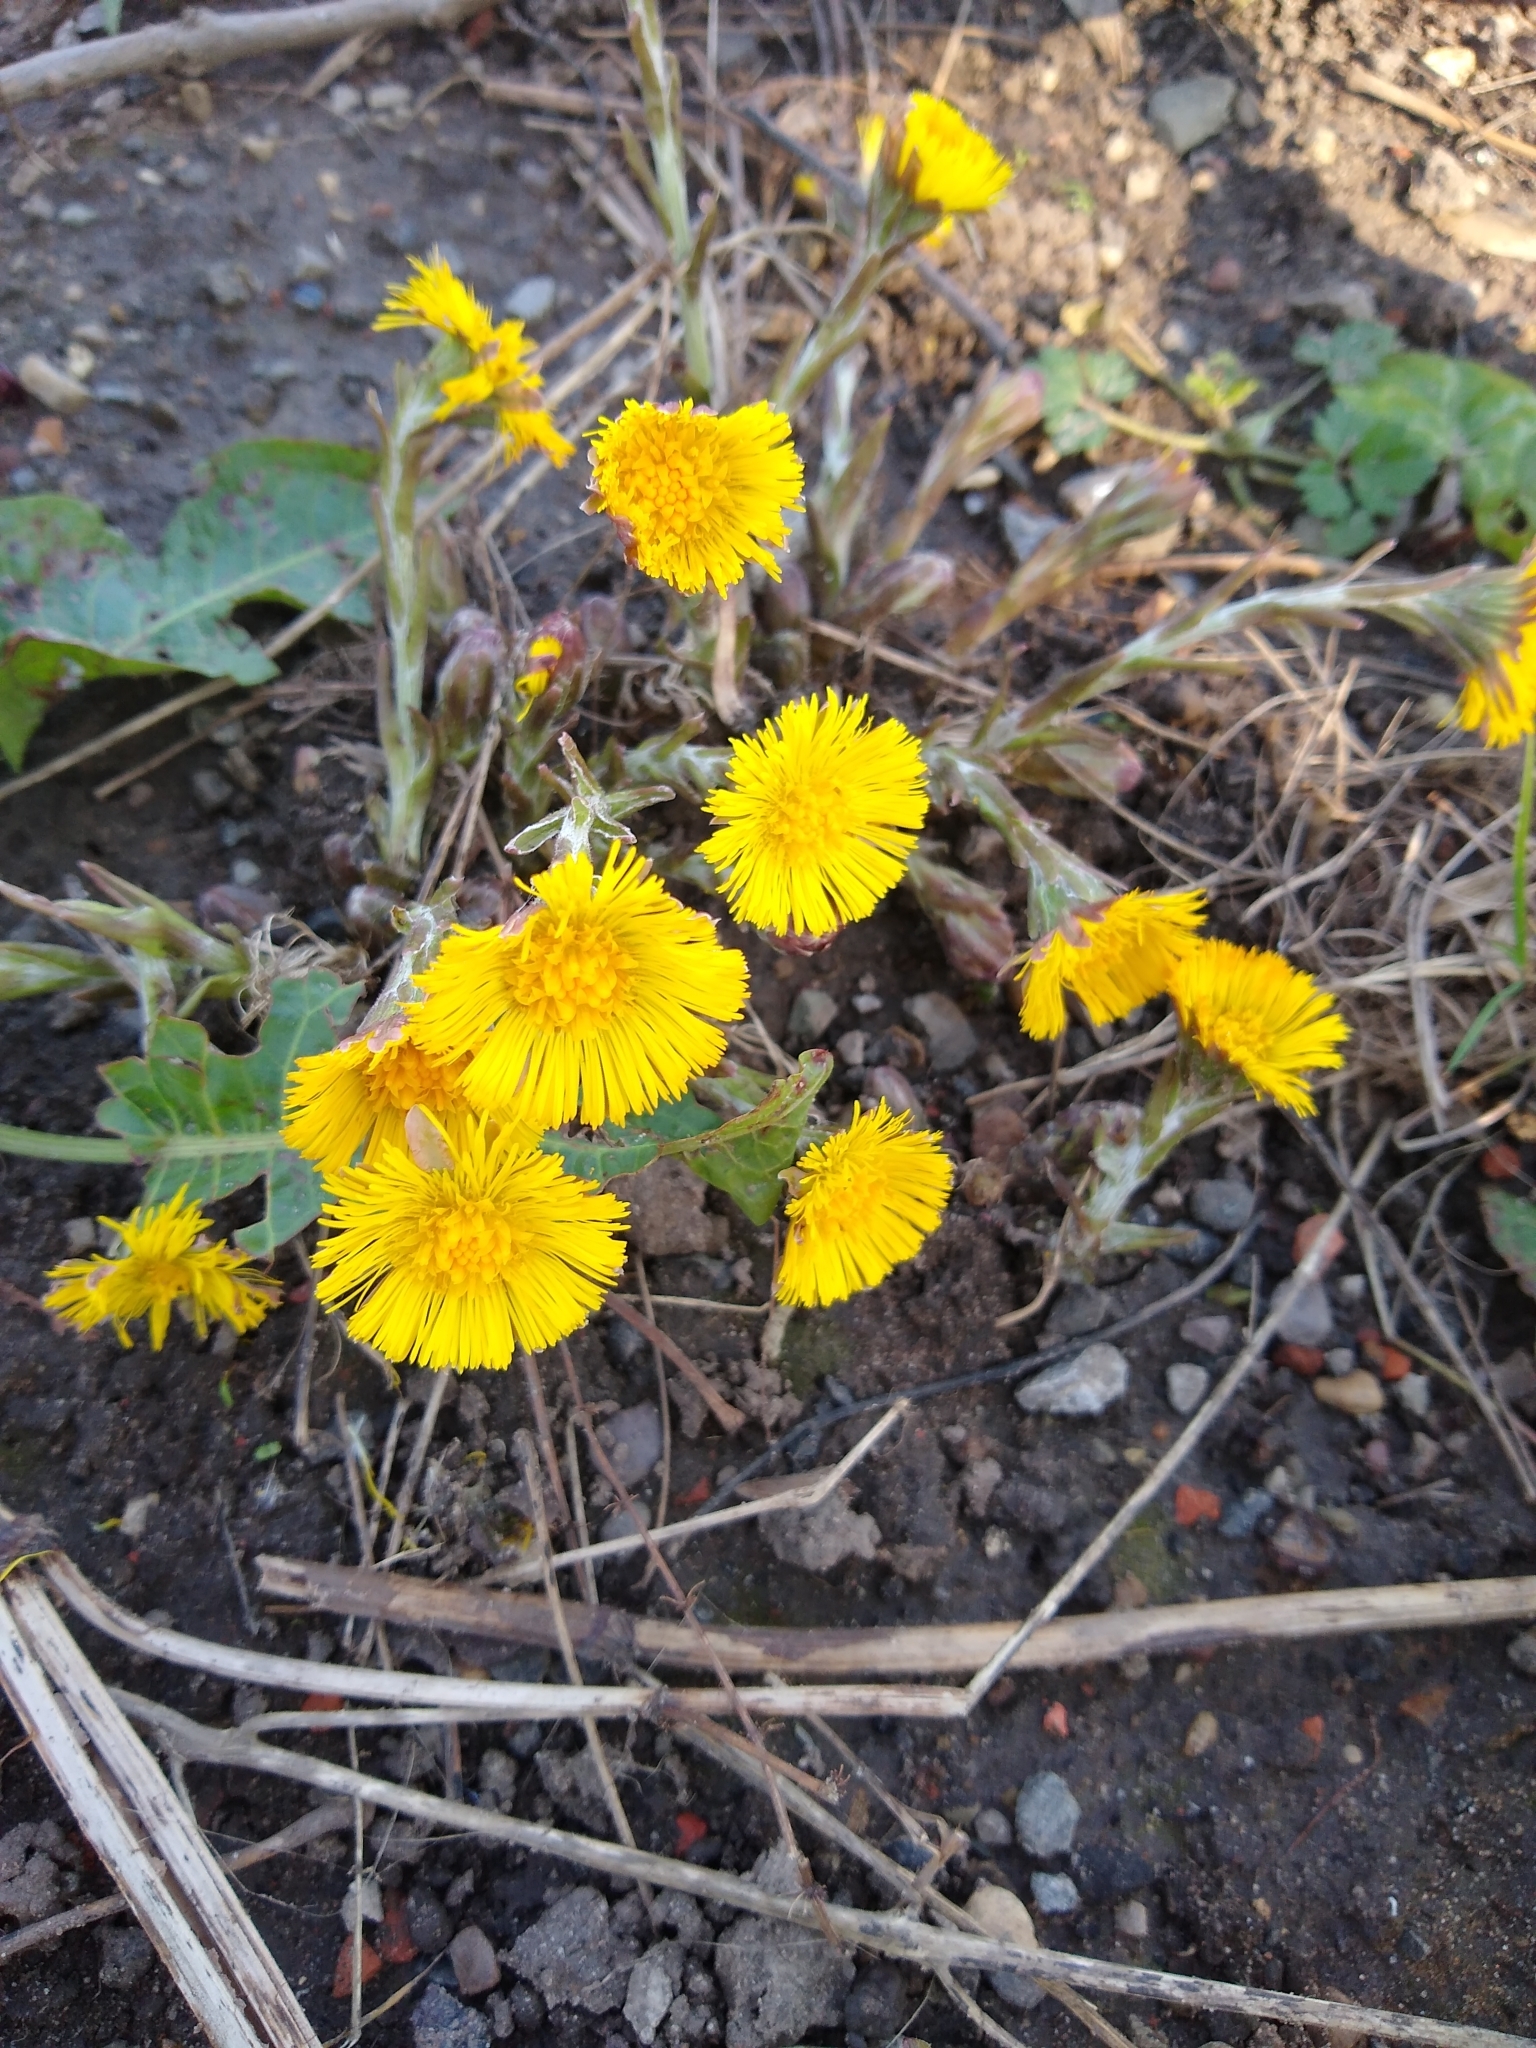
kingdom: Plantae
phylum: Tracheophyta
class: Magnoliopsida
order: Asterales
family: Asteraceae
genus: Tussilago
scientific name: Tussilago farfara
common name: Coltsfoot
